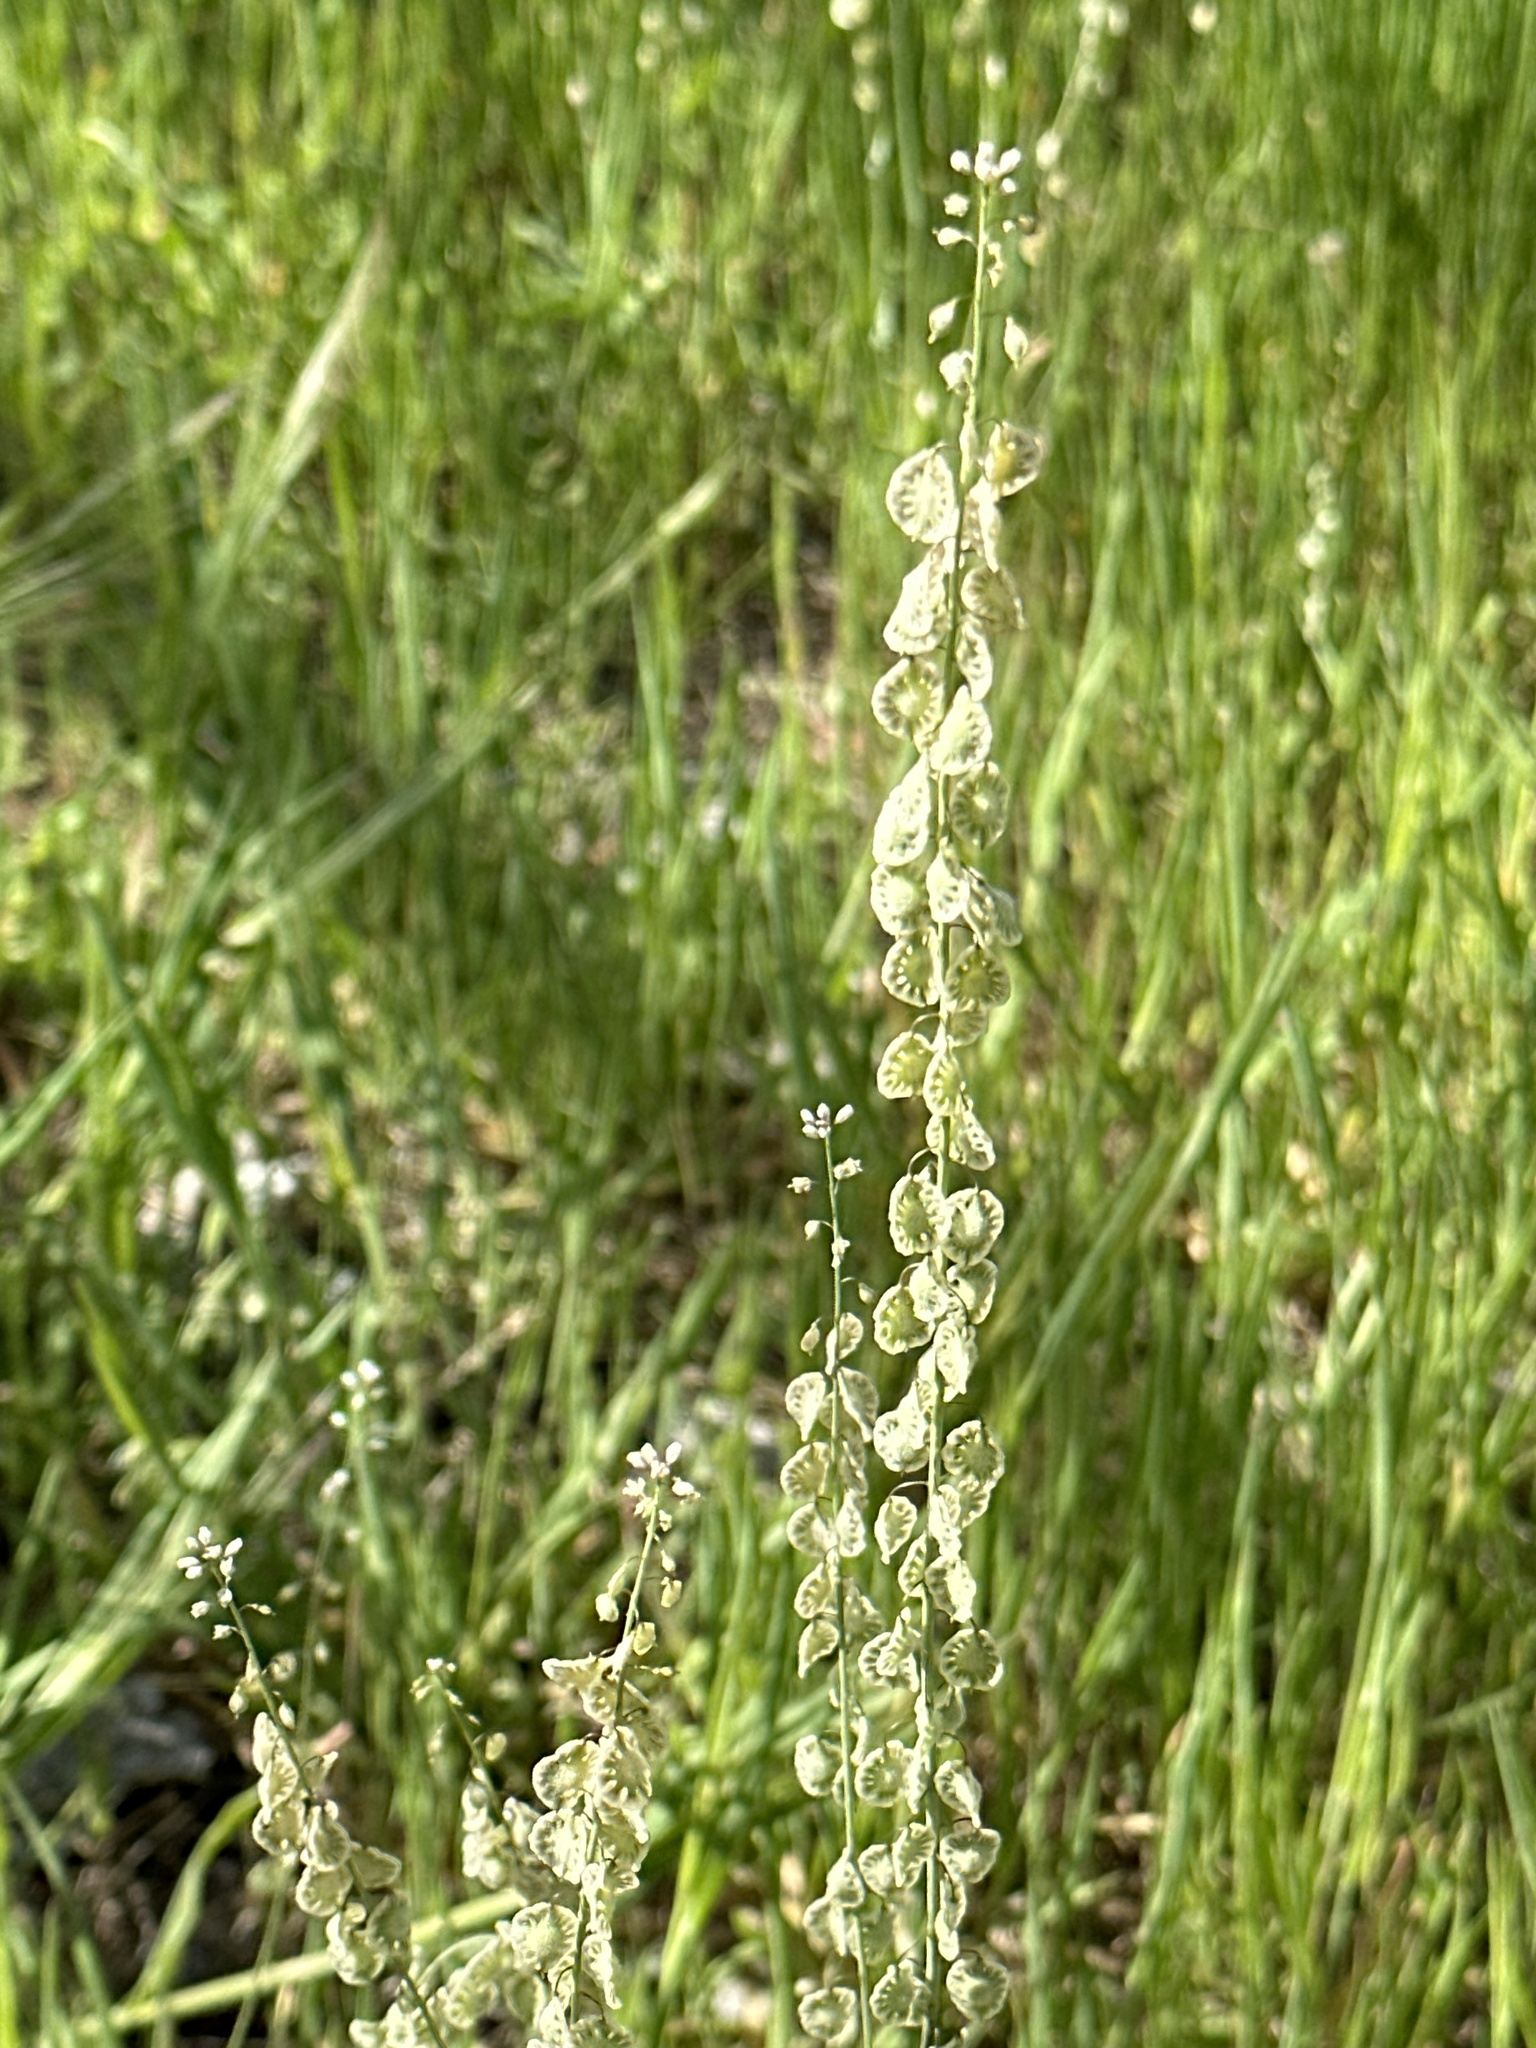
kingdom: Plantae
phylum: Tracheophyta
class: Magnoliopsida
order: Brassicales
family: Brassicaceae
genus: Thysanocarpus
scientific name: Thysanocarpus curvipes
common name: Sand fringepod
